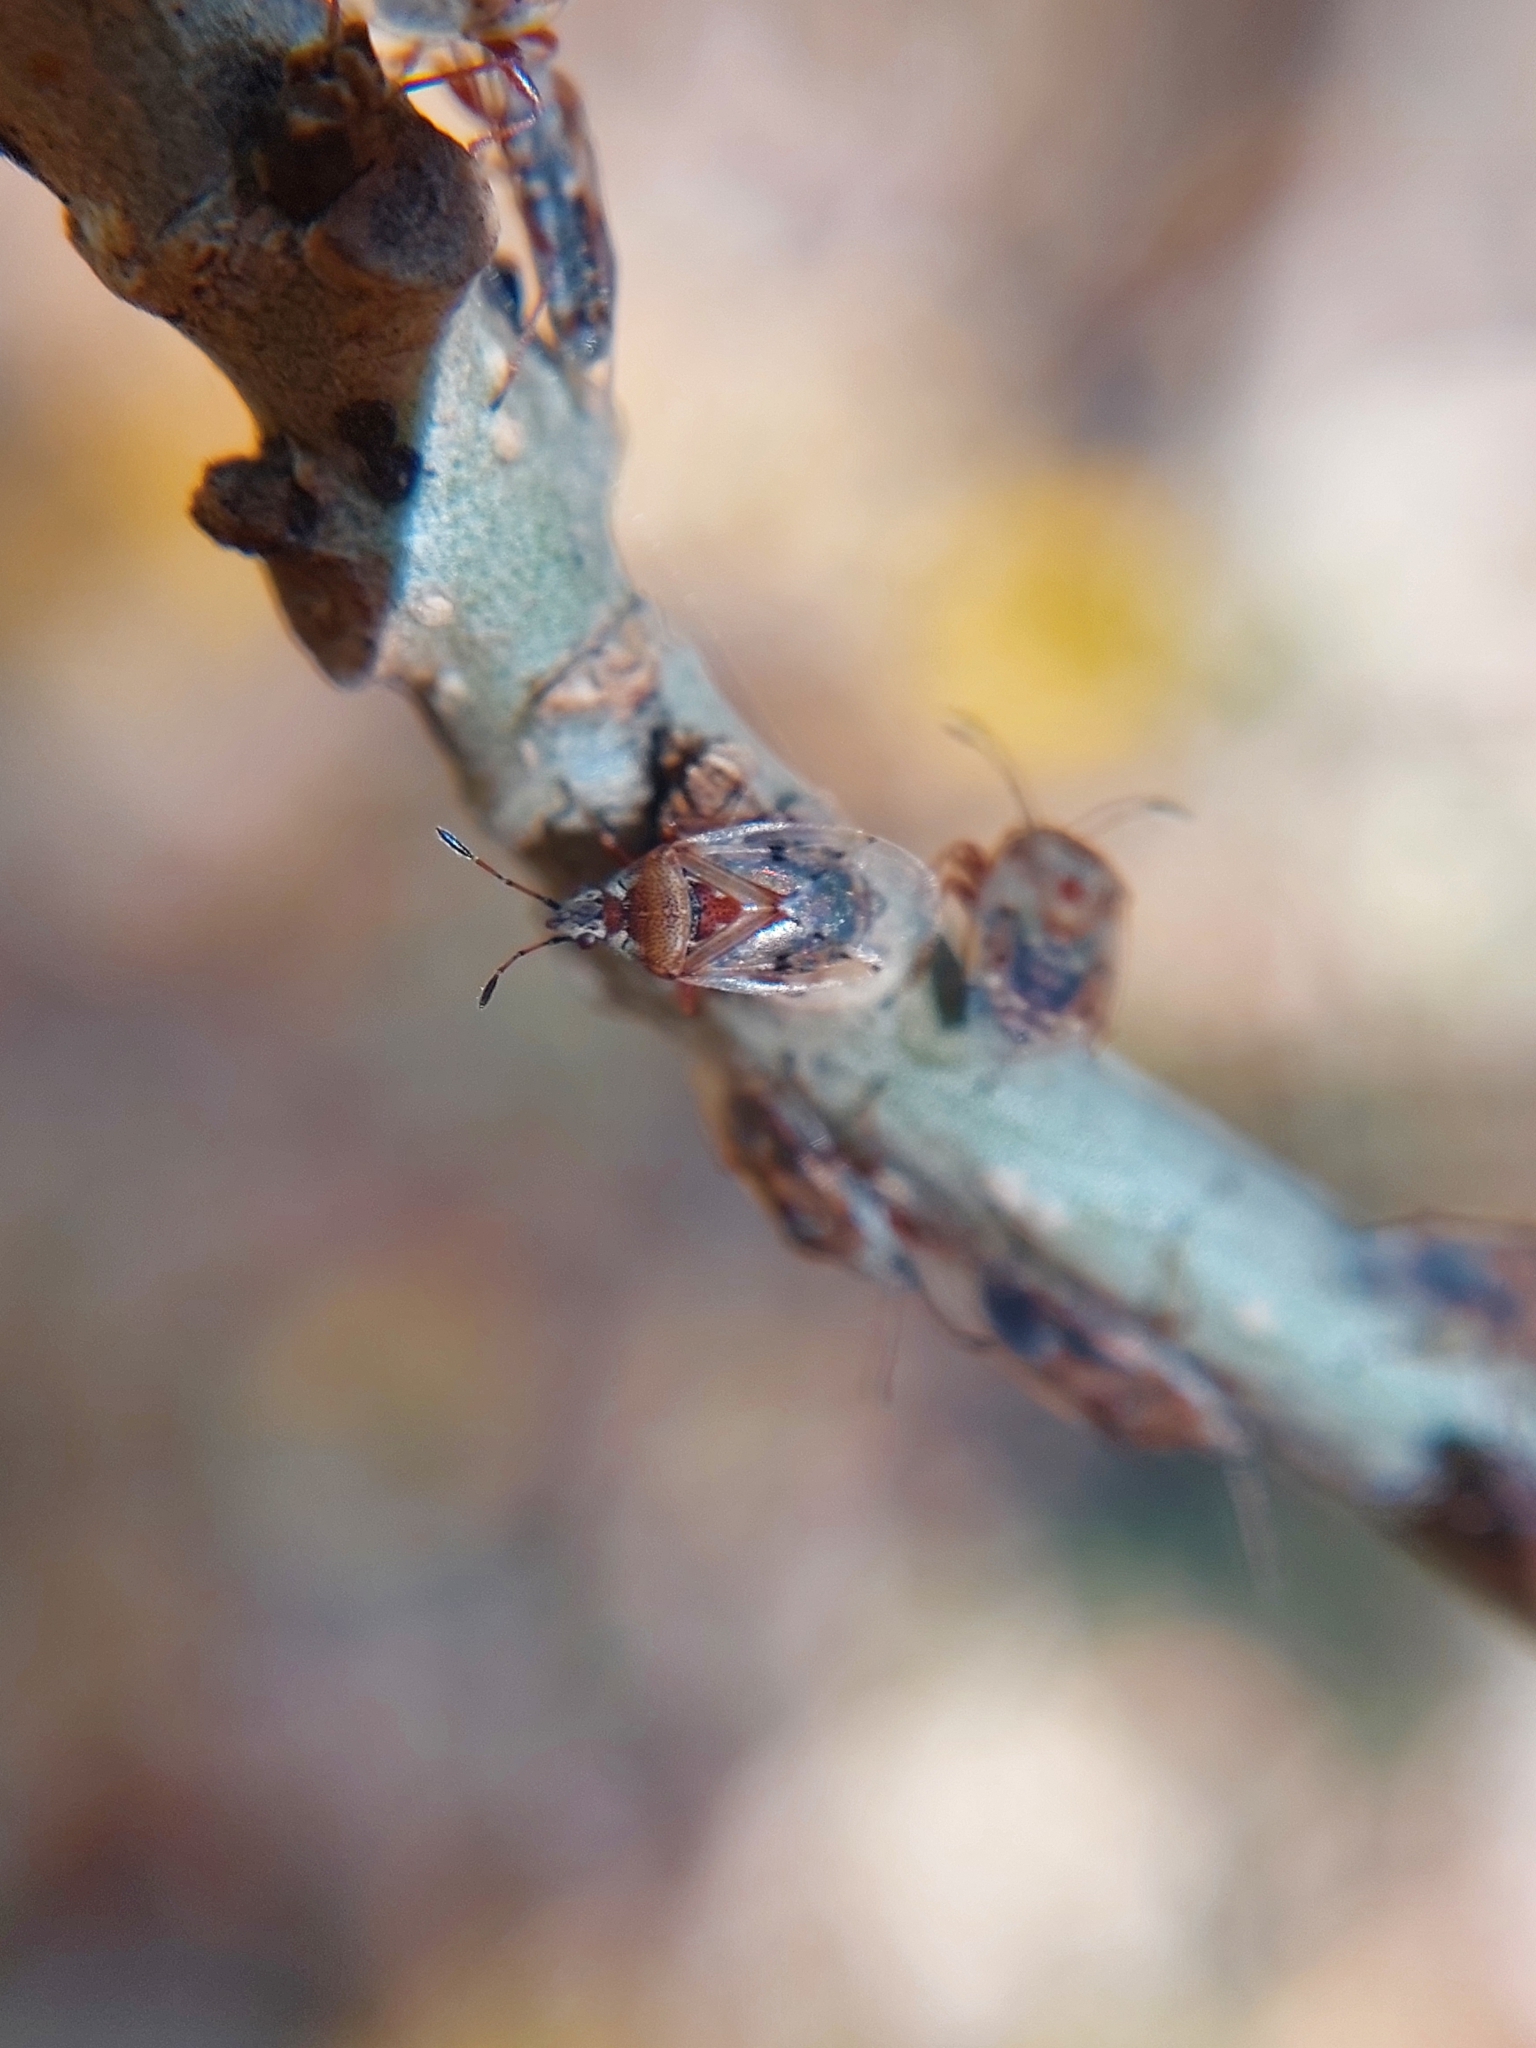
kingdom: Animalia
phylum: Arthropoda
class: Insecta
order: Hemiptera
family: Lygaeidae
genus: Kleidocerys
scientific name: Kleidocerys resedae
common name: Birch catkin bug
